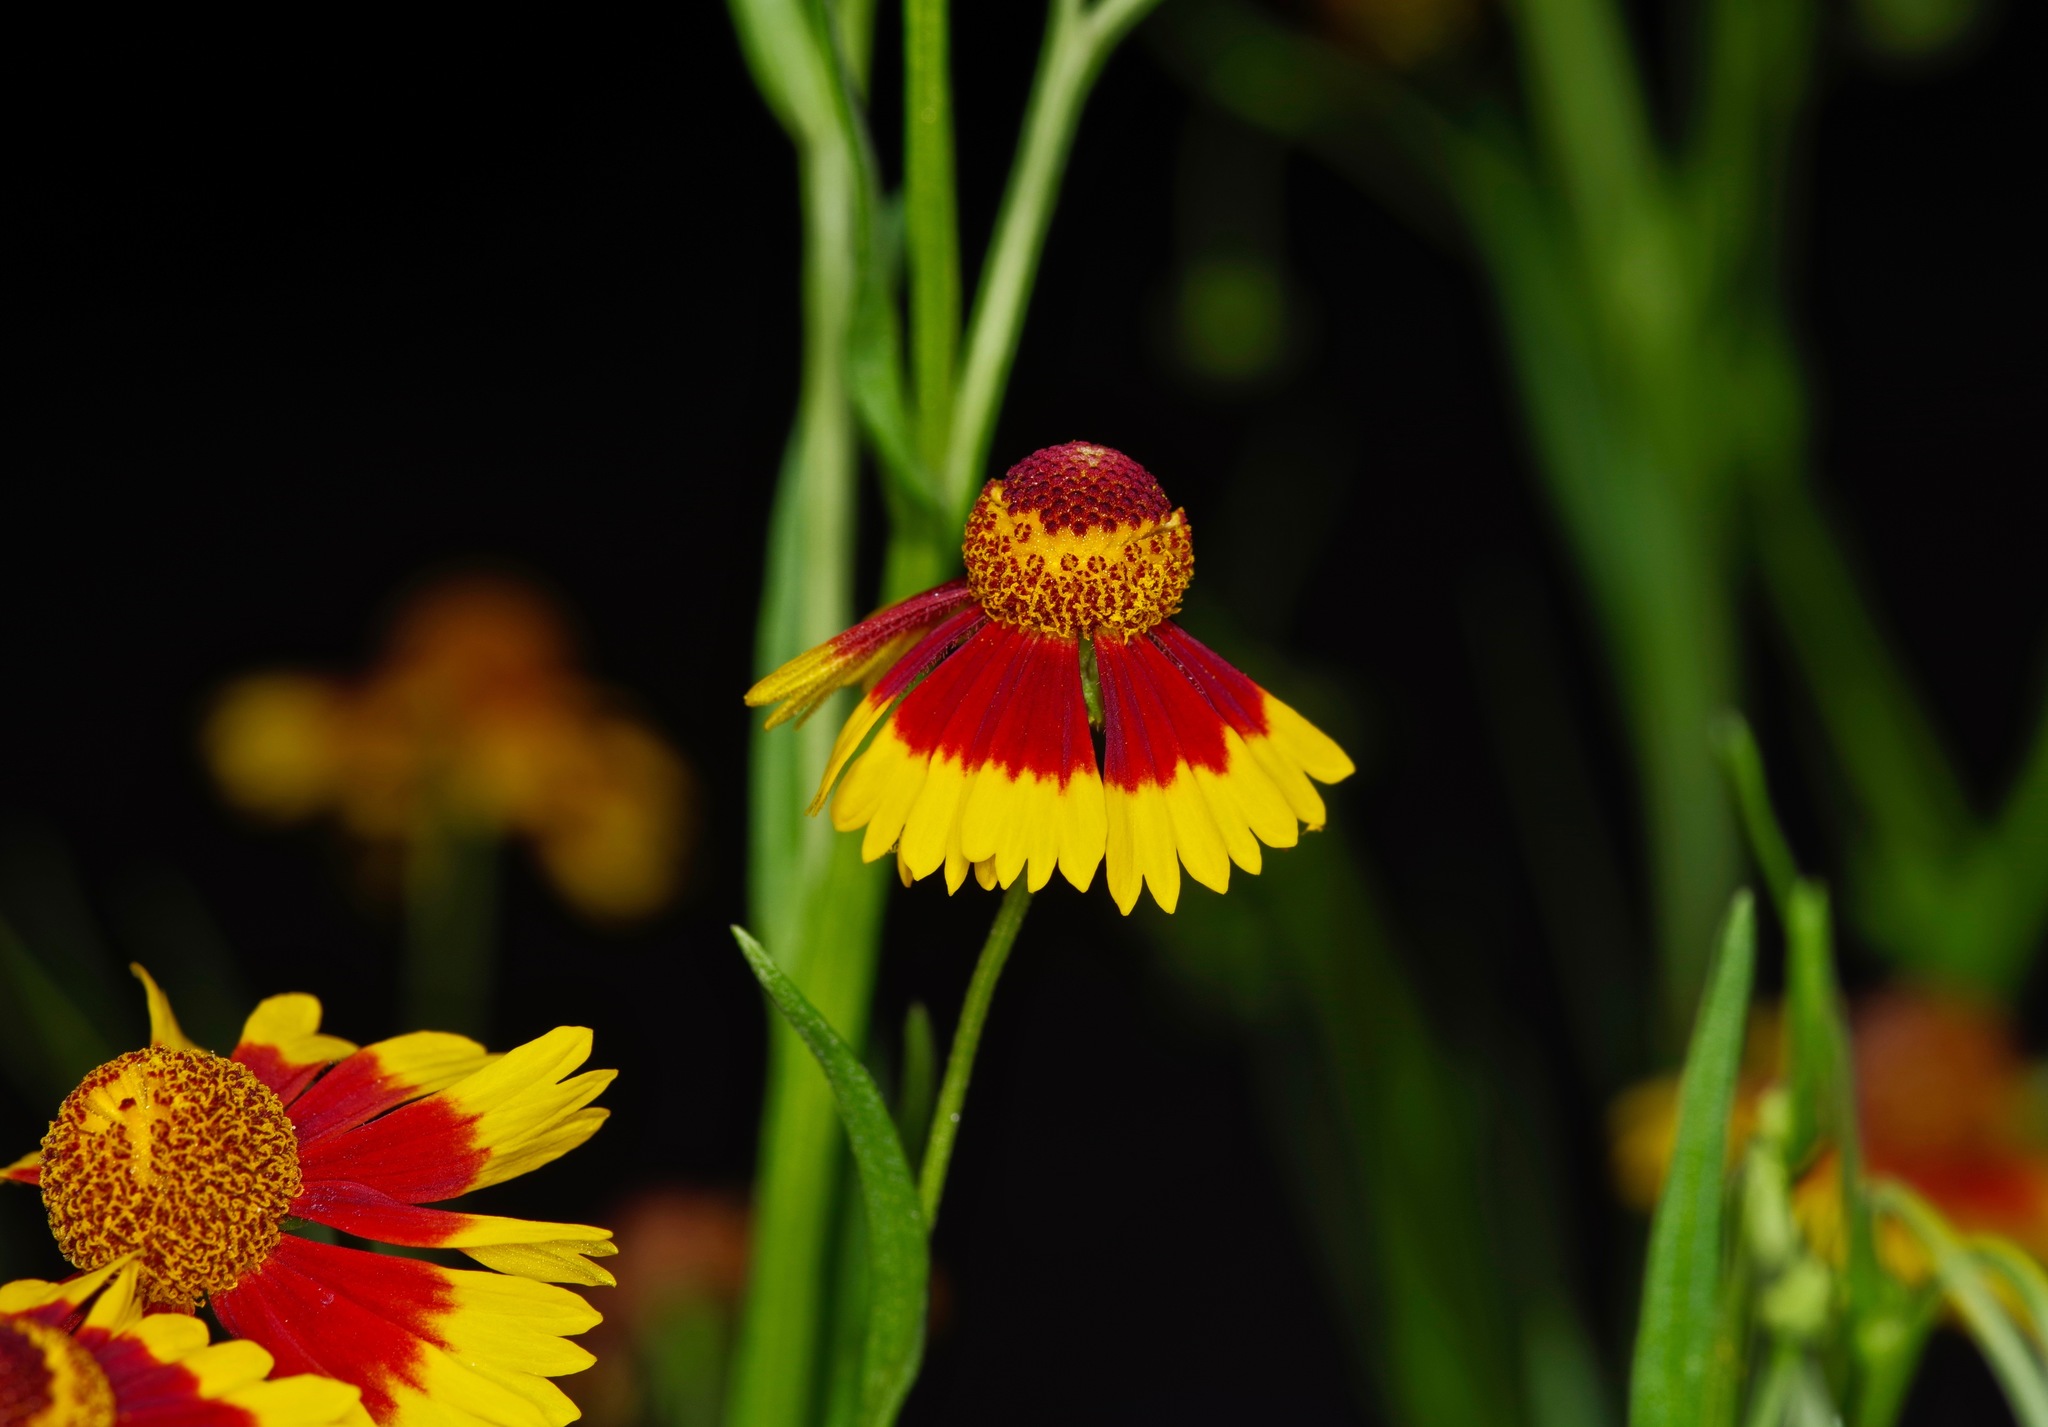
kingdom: Plantae
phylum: Tracheophyta
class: Magnoliopsida
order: Asterales
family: Asteraceae
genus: Helenium
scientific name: Helenium elegans
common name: Pretty sneezeweed
